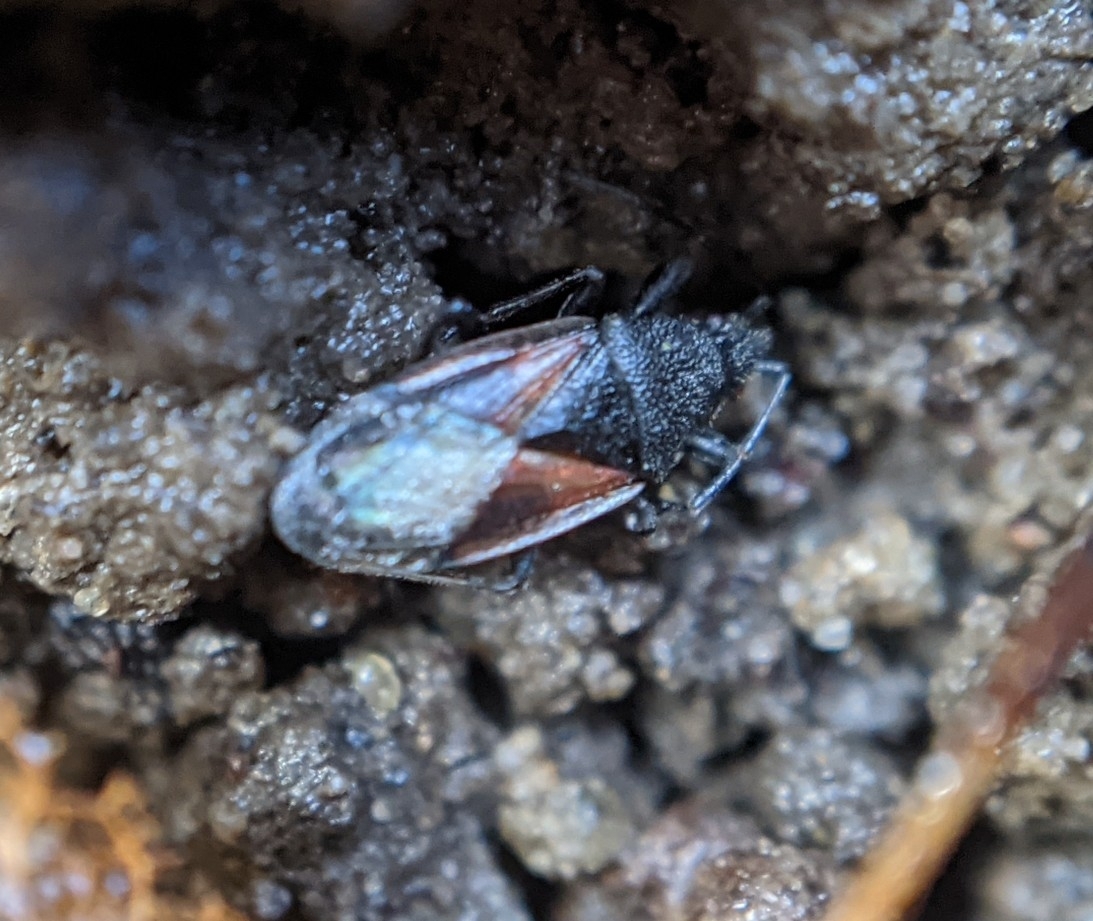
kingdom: Animalia
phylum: Arthropoda
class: Insecta
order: Hemiptera
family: Oxycarenidae
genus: Oxycarenus
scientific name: Oxycarenus lavaterae
